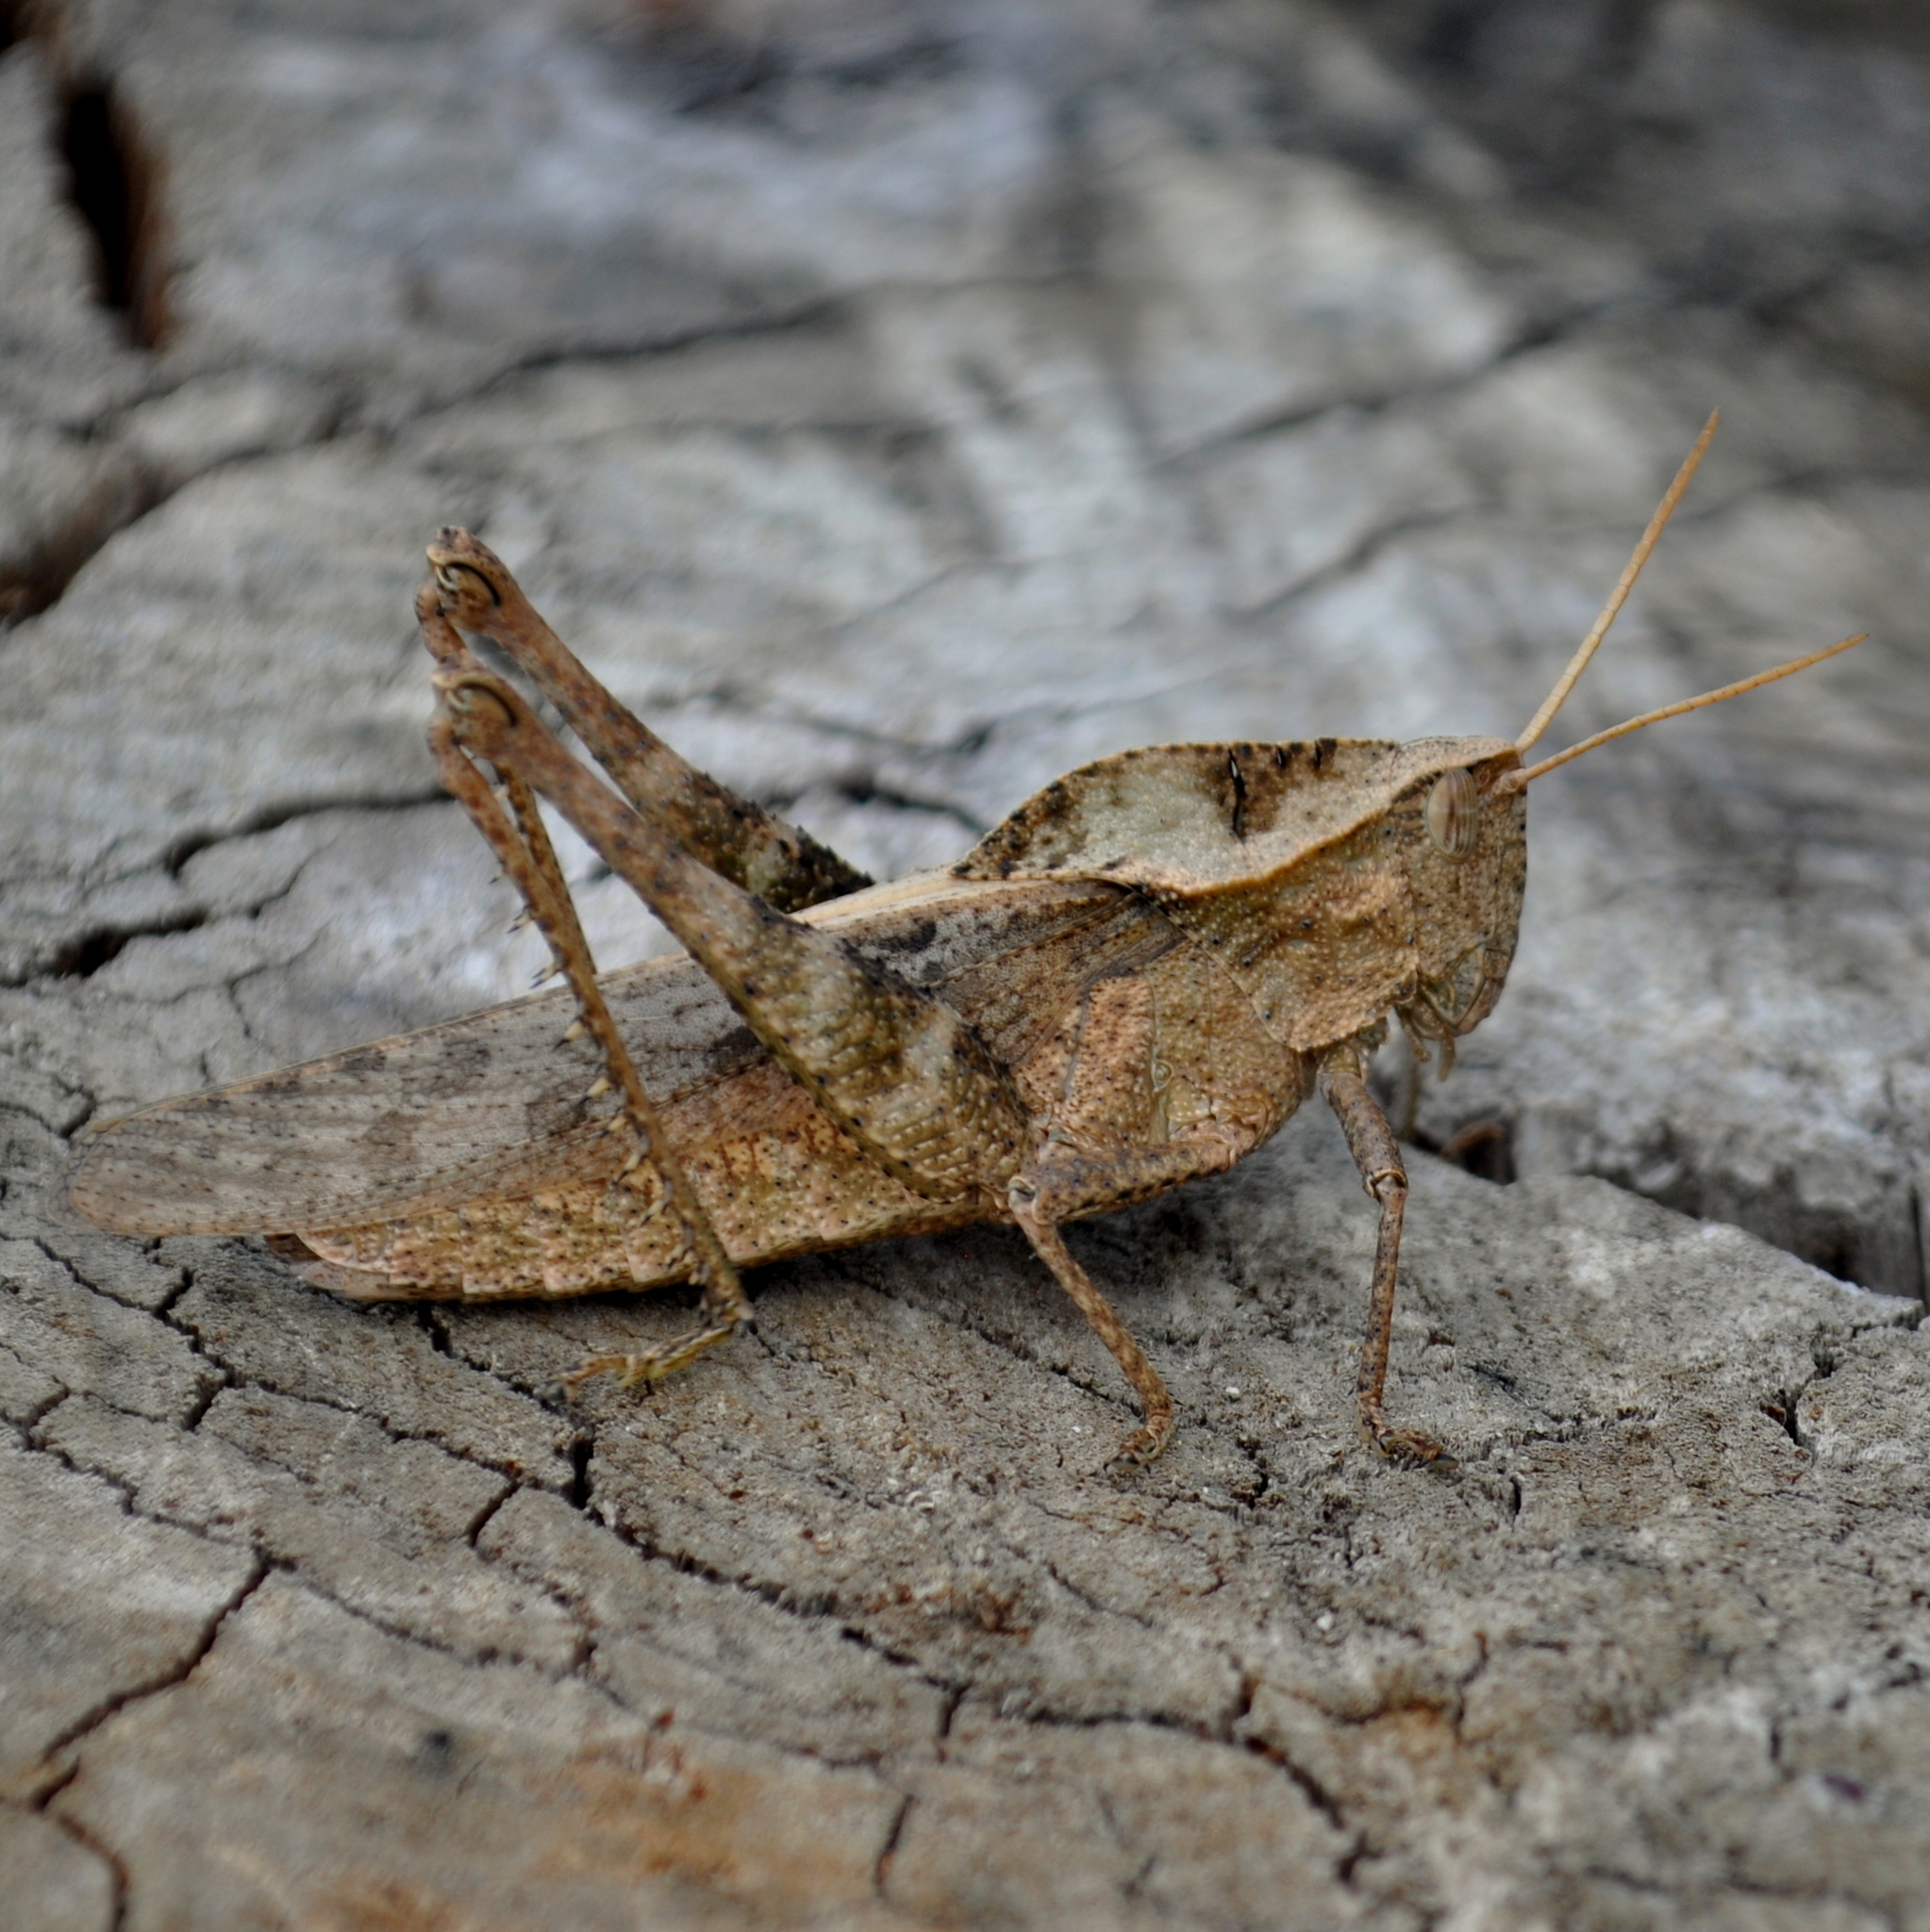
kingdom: Animalia
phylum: Arthropoda
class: Insecta
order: Orthoptera
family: Romaleidae
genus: Xyleus
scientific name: Xyleus discoideus
